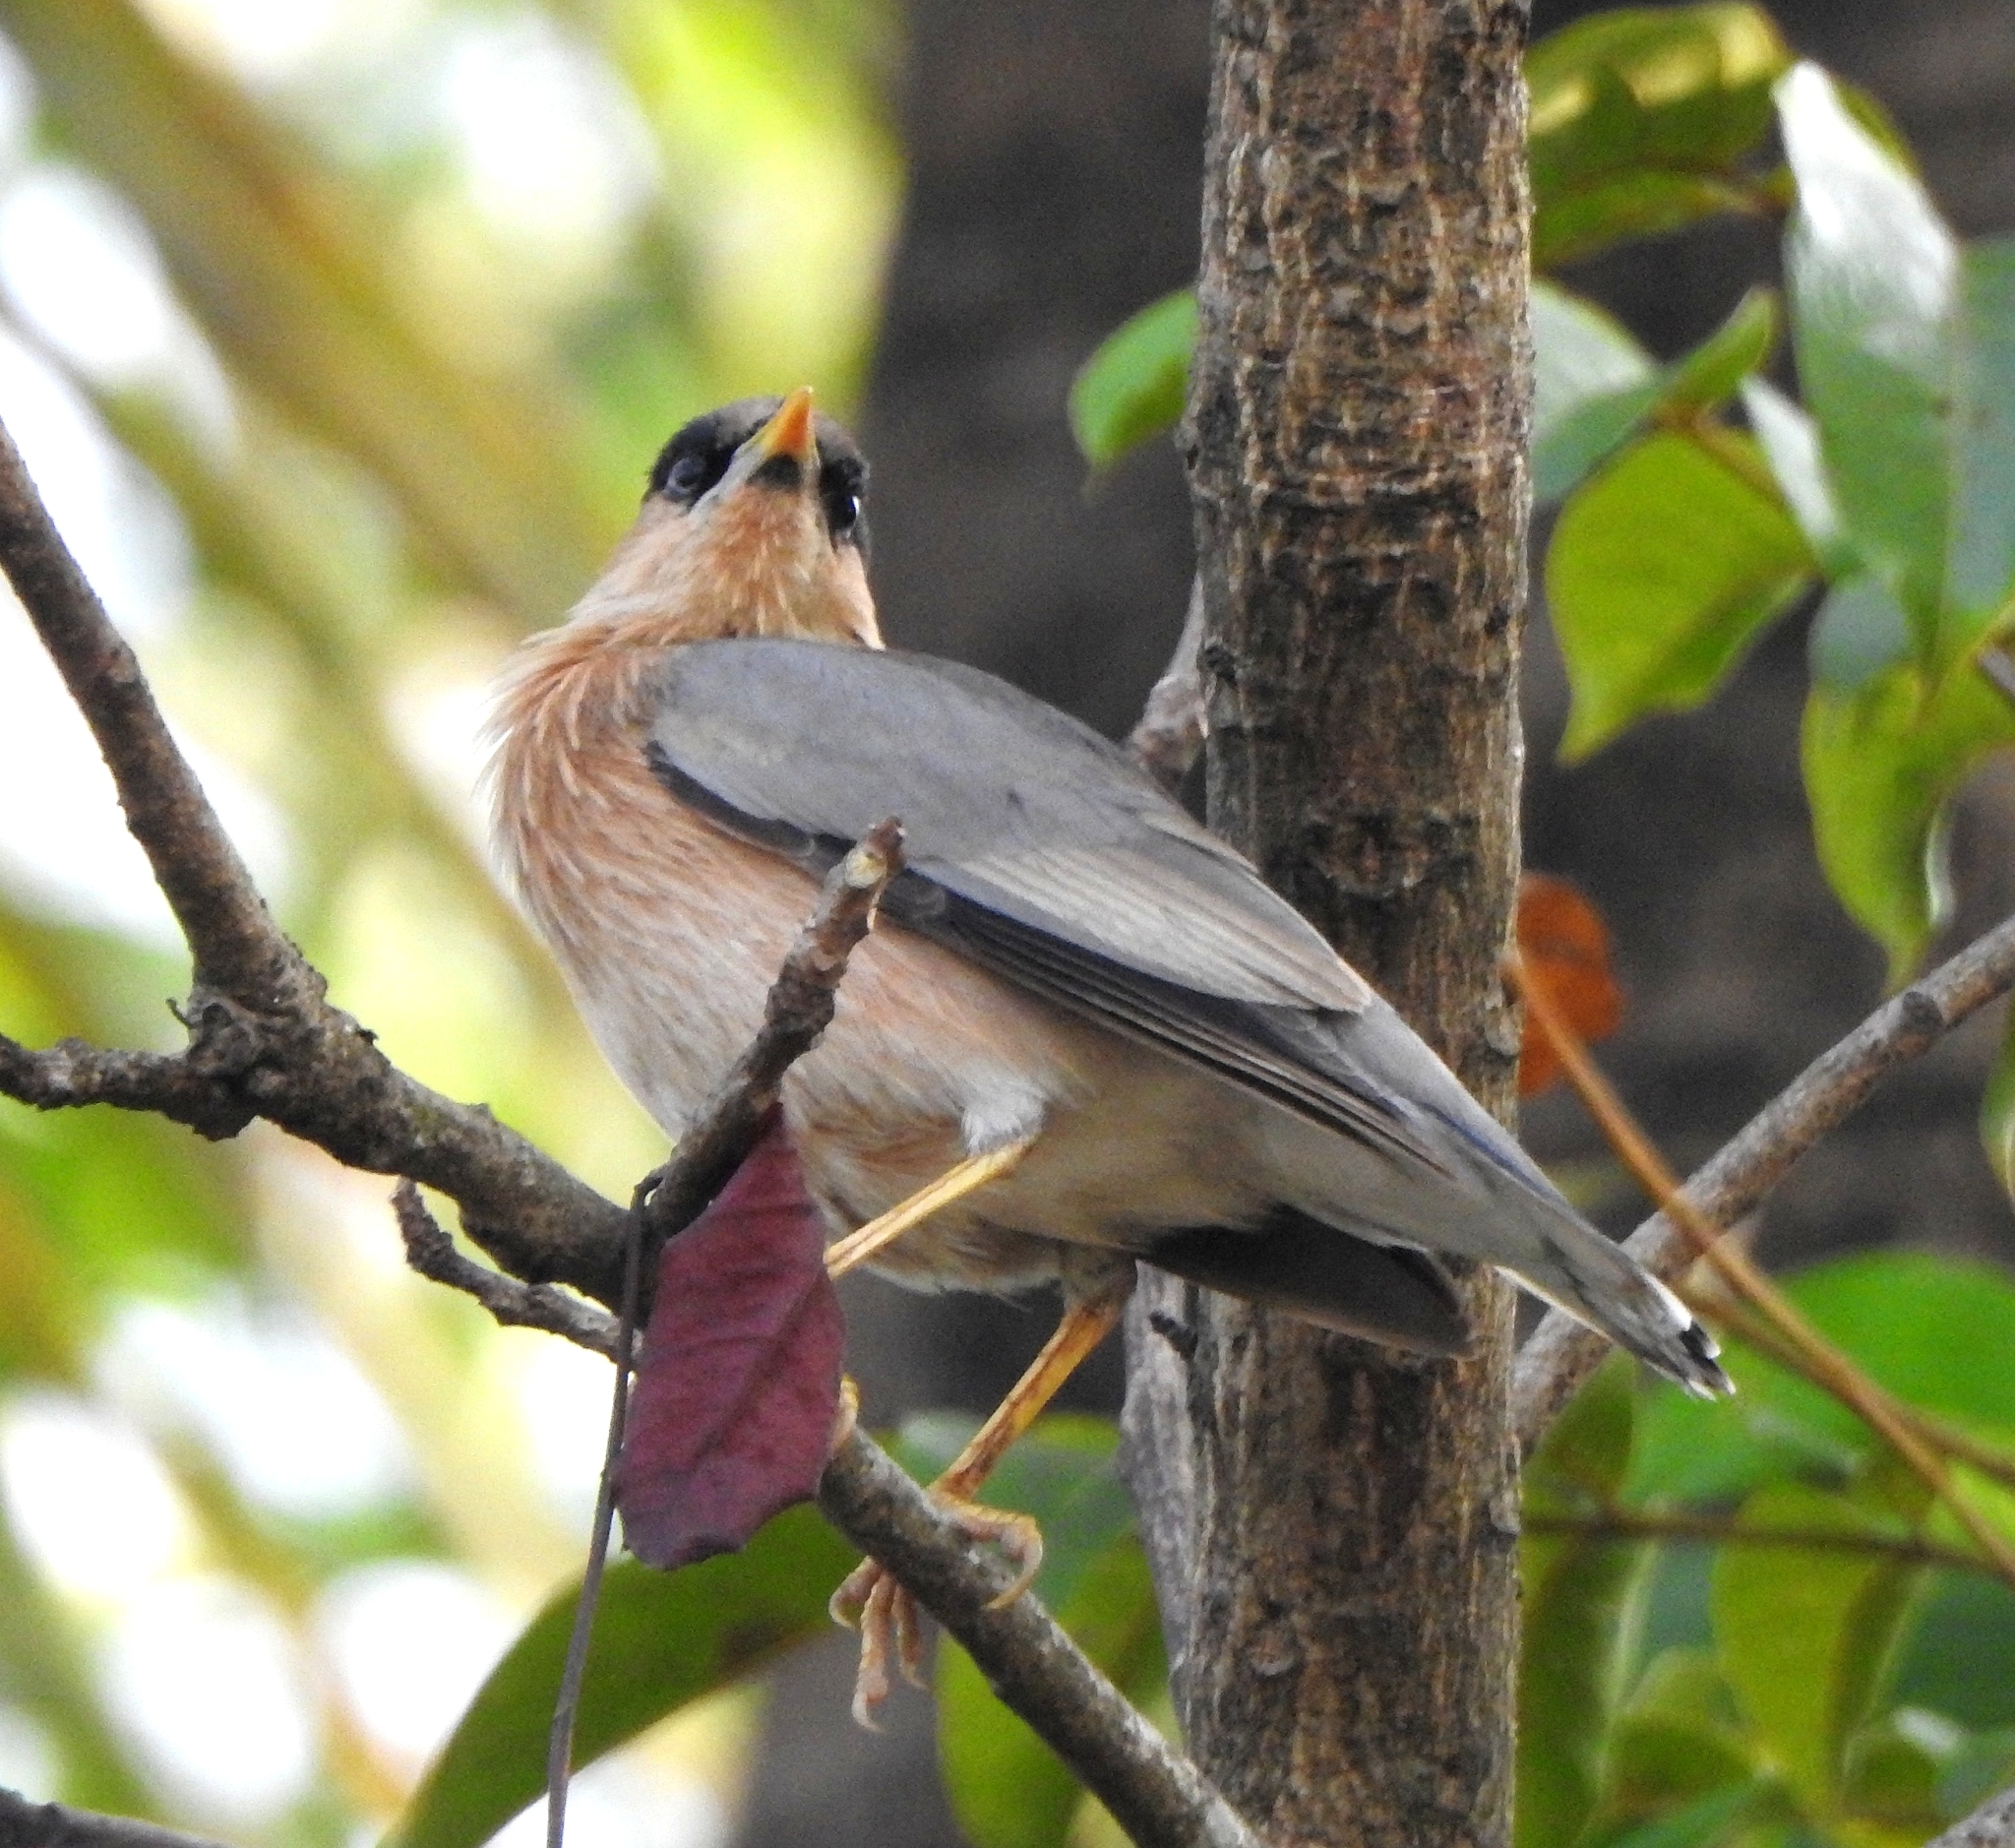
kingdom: Animalia
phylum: Chordata
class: Aves
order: Passeriformes
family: Sturnidae
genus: Sturnia
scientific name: Sturnia pagodarum
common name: Brahminy starling
